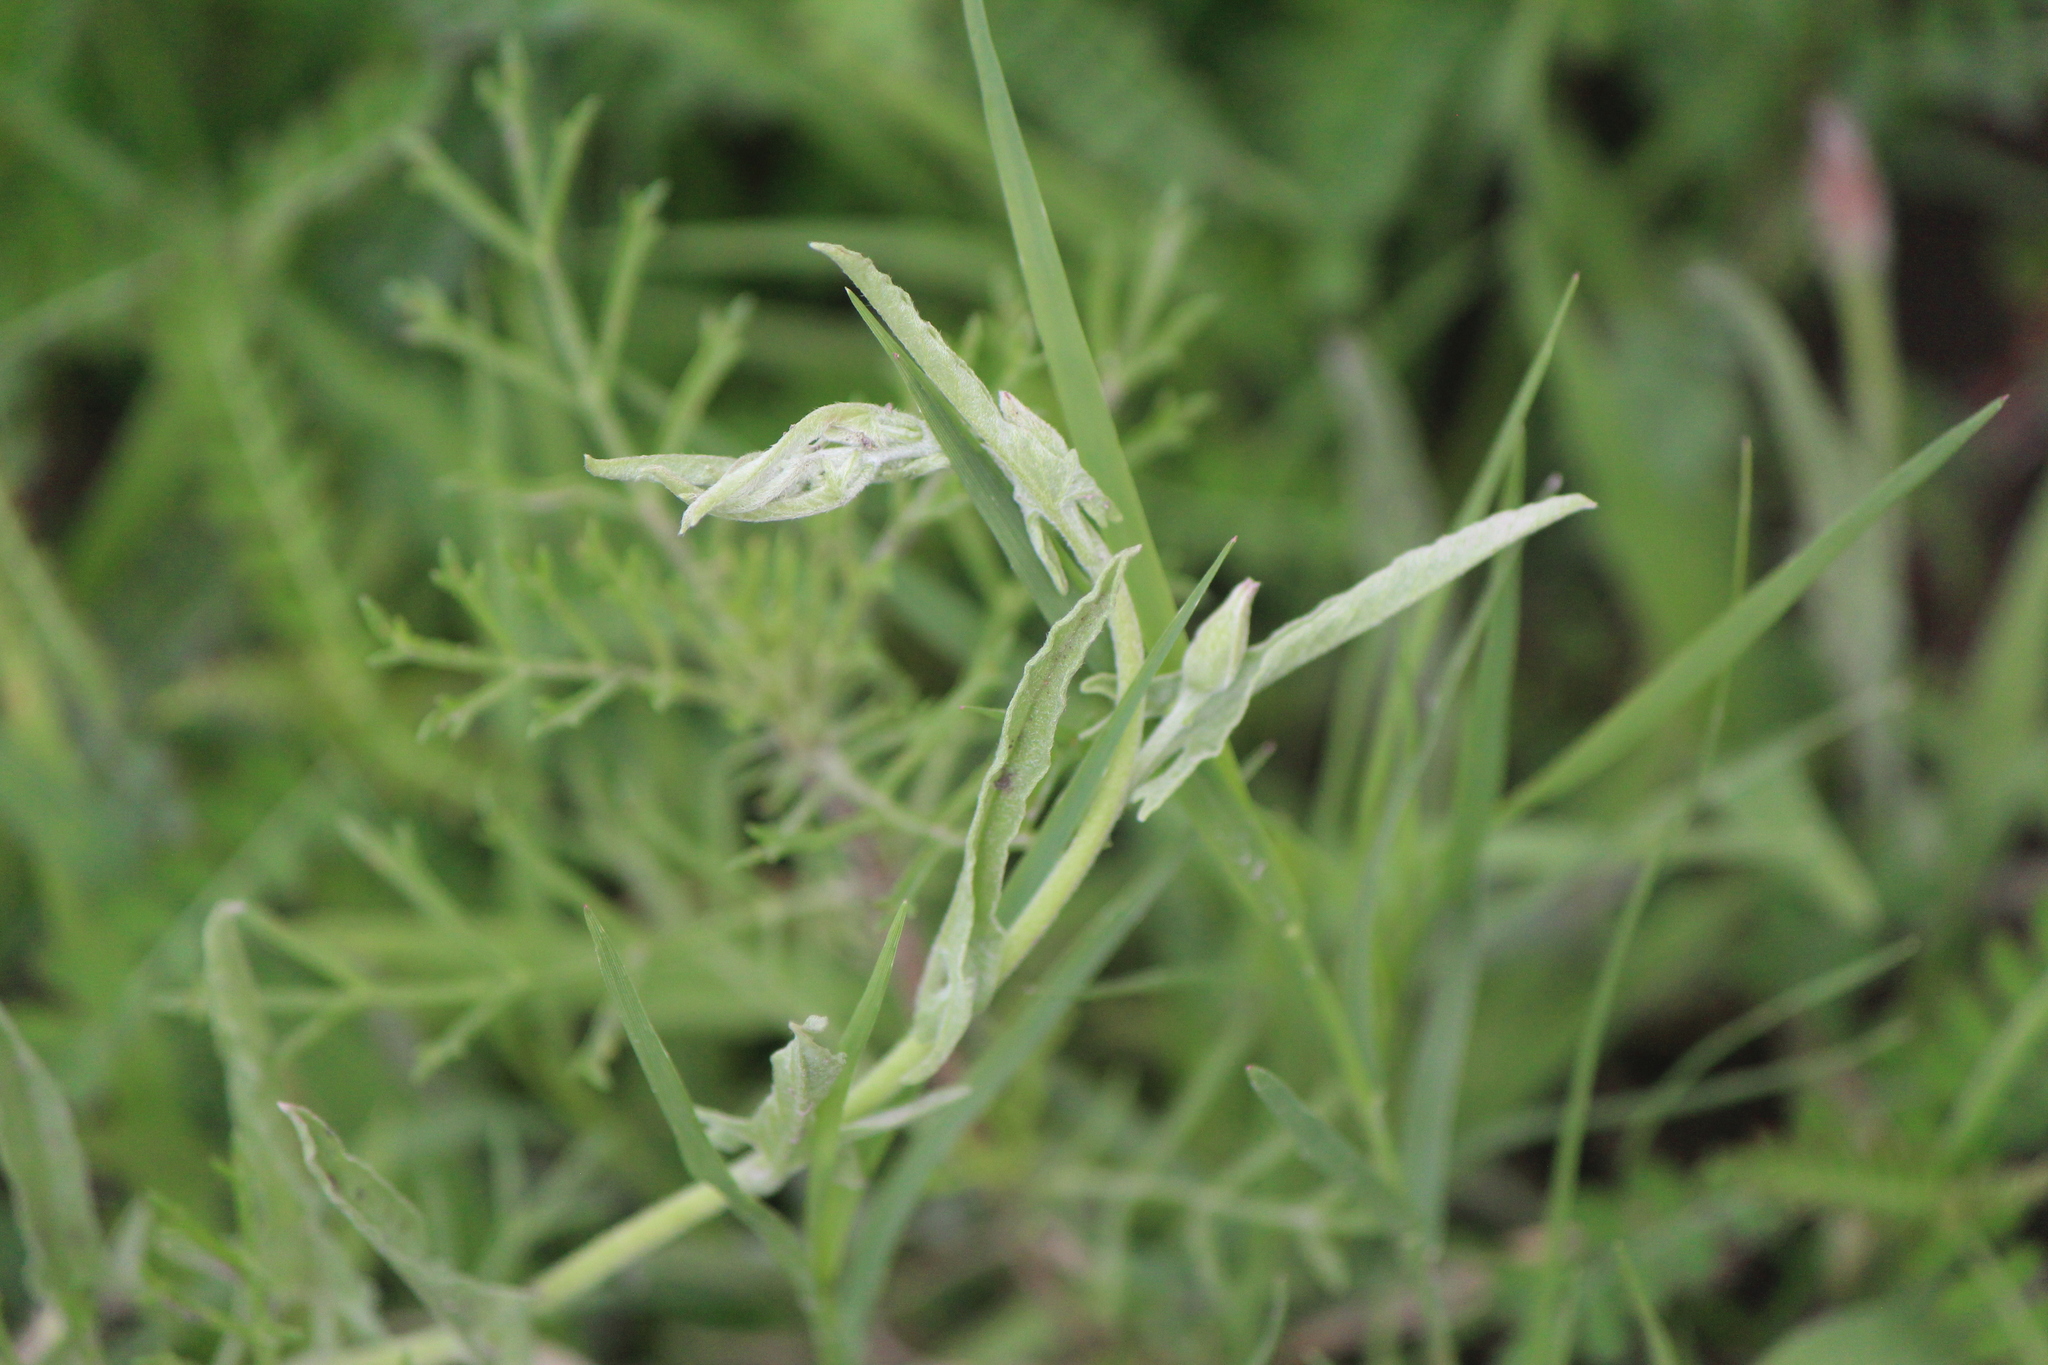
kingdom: Plantae
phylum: Tracheophyta
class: Magnoliopsida
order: Solanales
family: Convolvulaceae
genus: Convolvulus
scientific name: Convolvulus equitans
